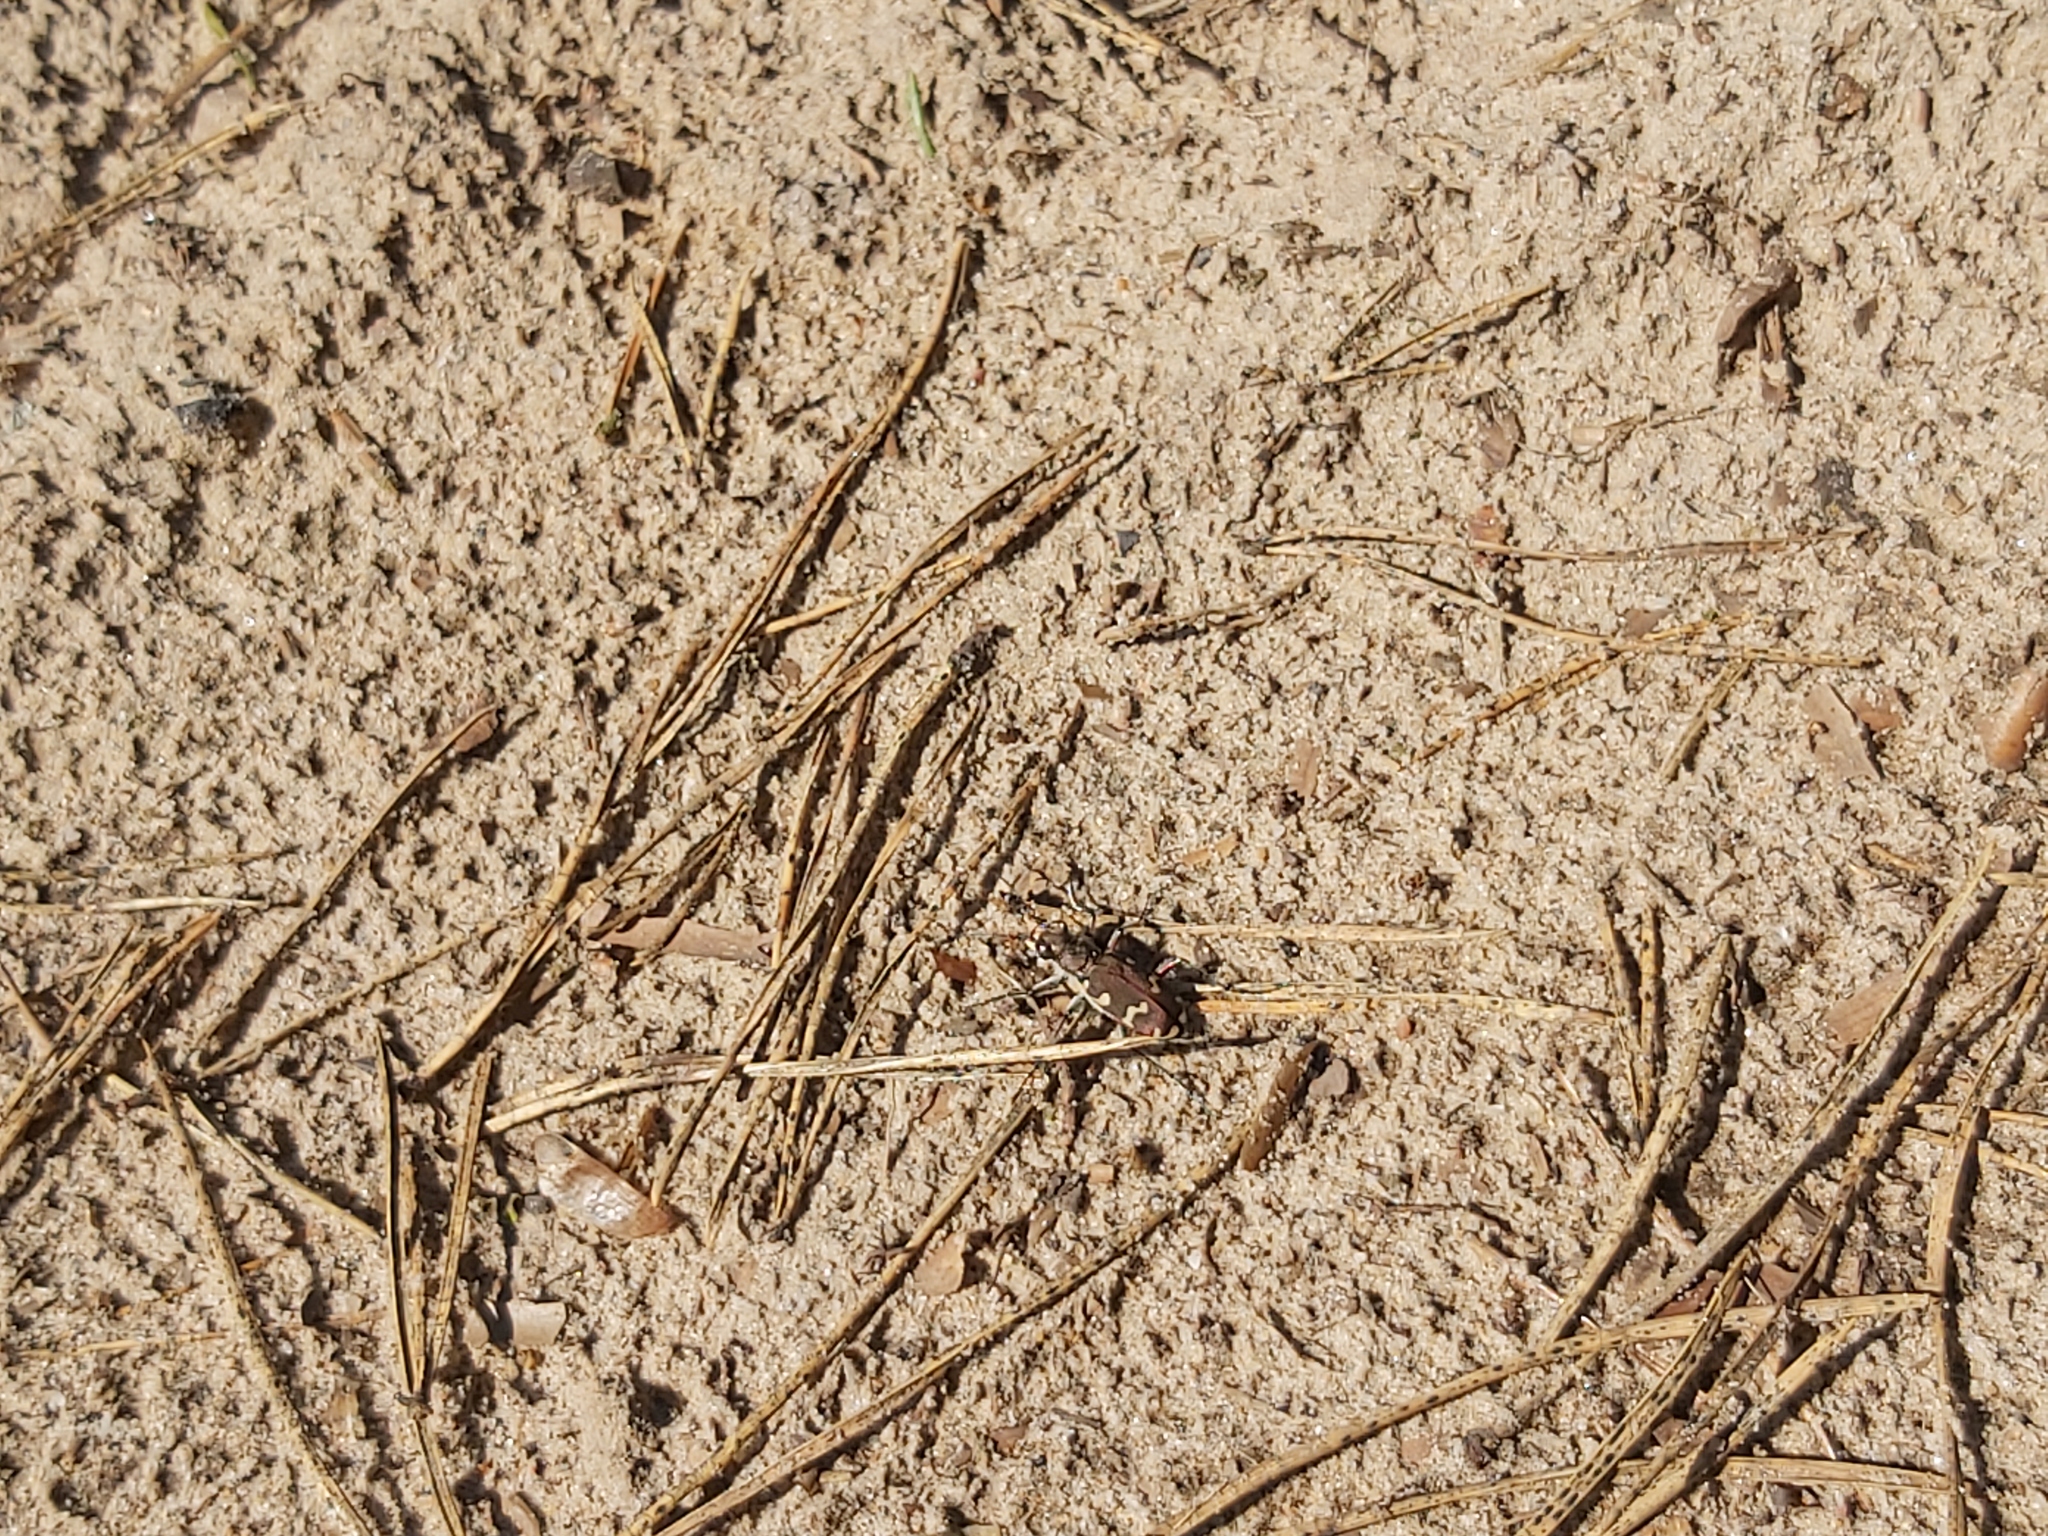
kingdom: Animalia
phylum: Arthropoda
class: Insecta
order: Coleoptera
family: Carabidae
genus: Cicindela
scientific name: Cicindela hybrida
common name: Northern dune tiger beetle
